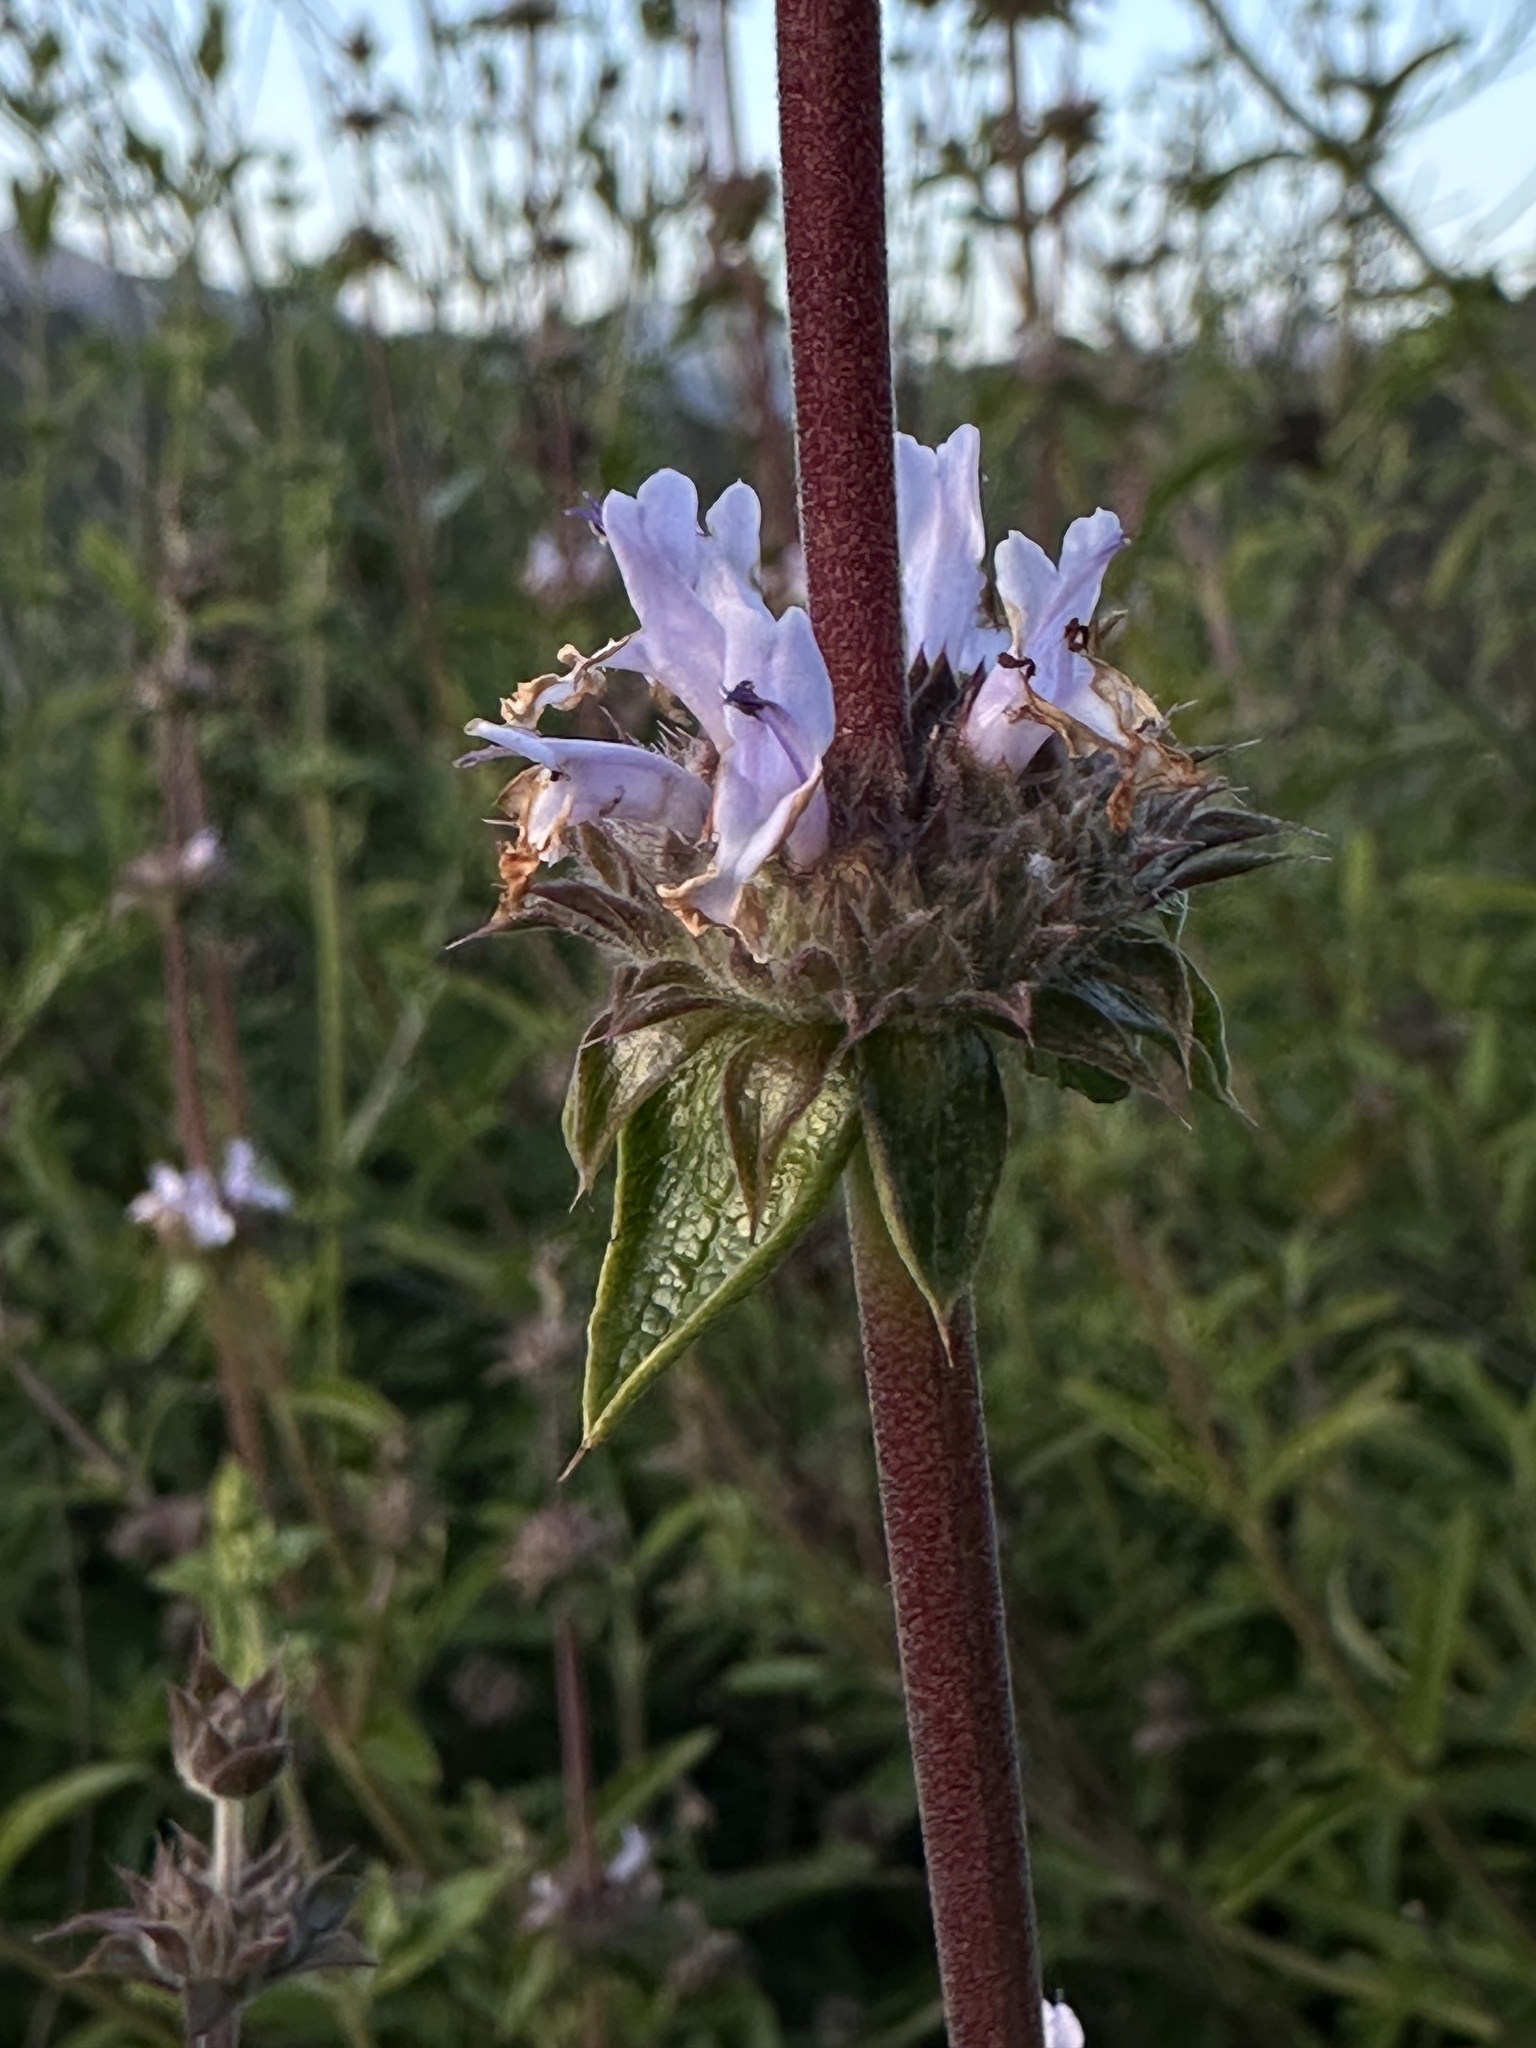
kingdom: Plantae
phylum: Tracheophyta
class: Magnoliopsida
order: Lamiales
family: Lamiaceae
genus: Salvia
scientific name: Salvia mellifera
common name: Black sage
